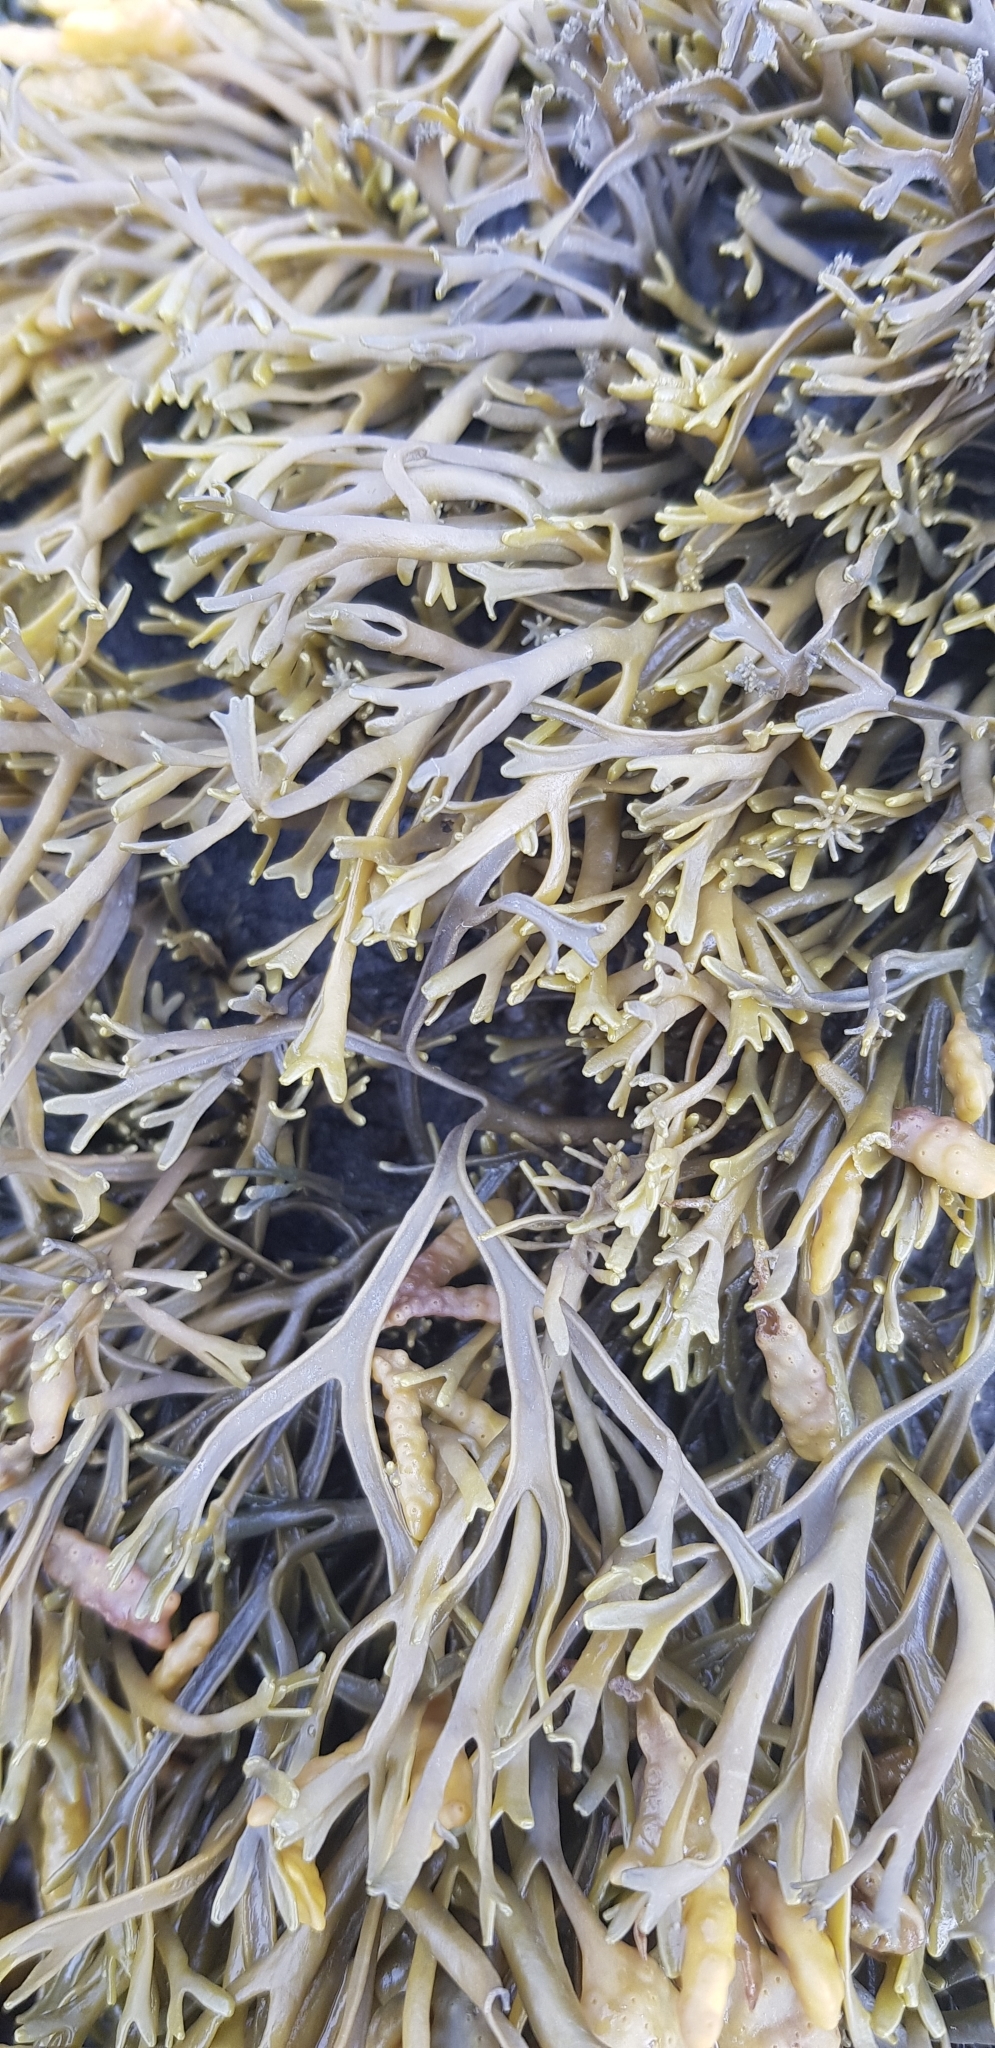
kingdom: Chromista
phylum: Ochrophyta
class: Phaeophyceae
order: Fucales
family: Fucaceae
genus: Pelvetia
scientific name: Pelvetia canaliculata
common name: Channelled wrack
